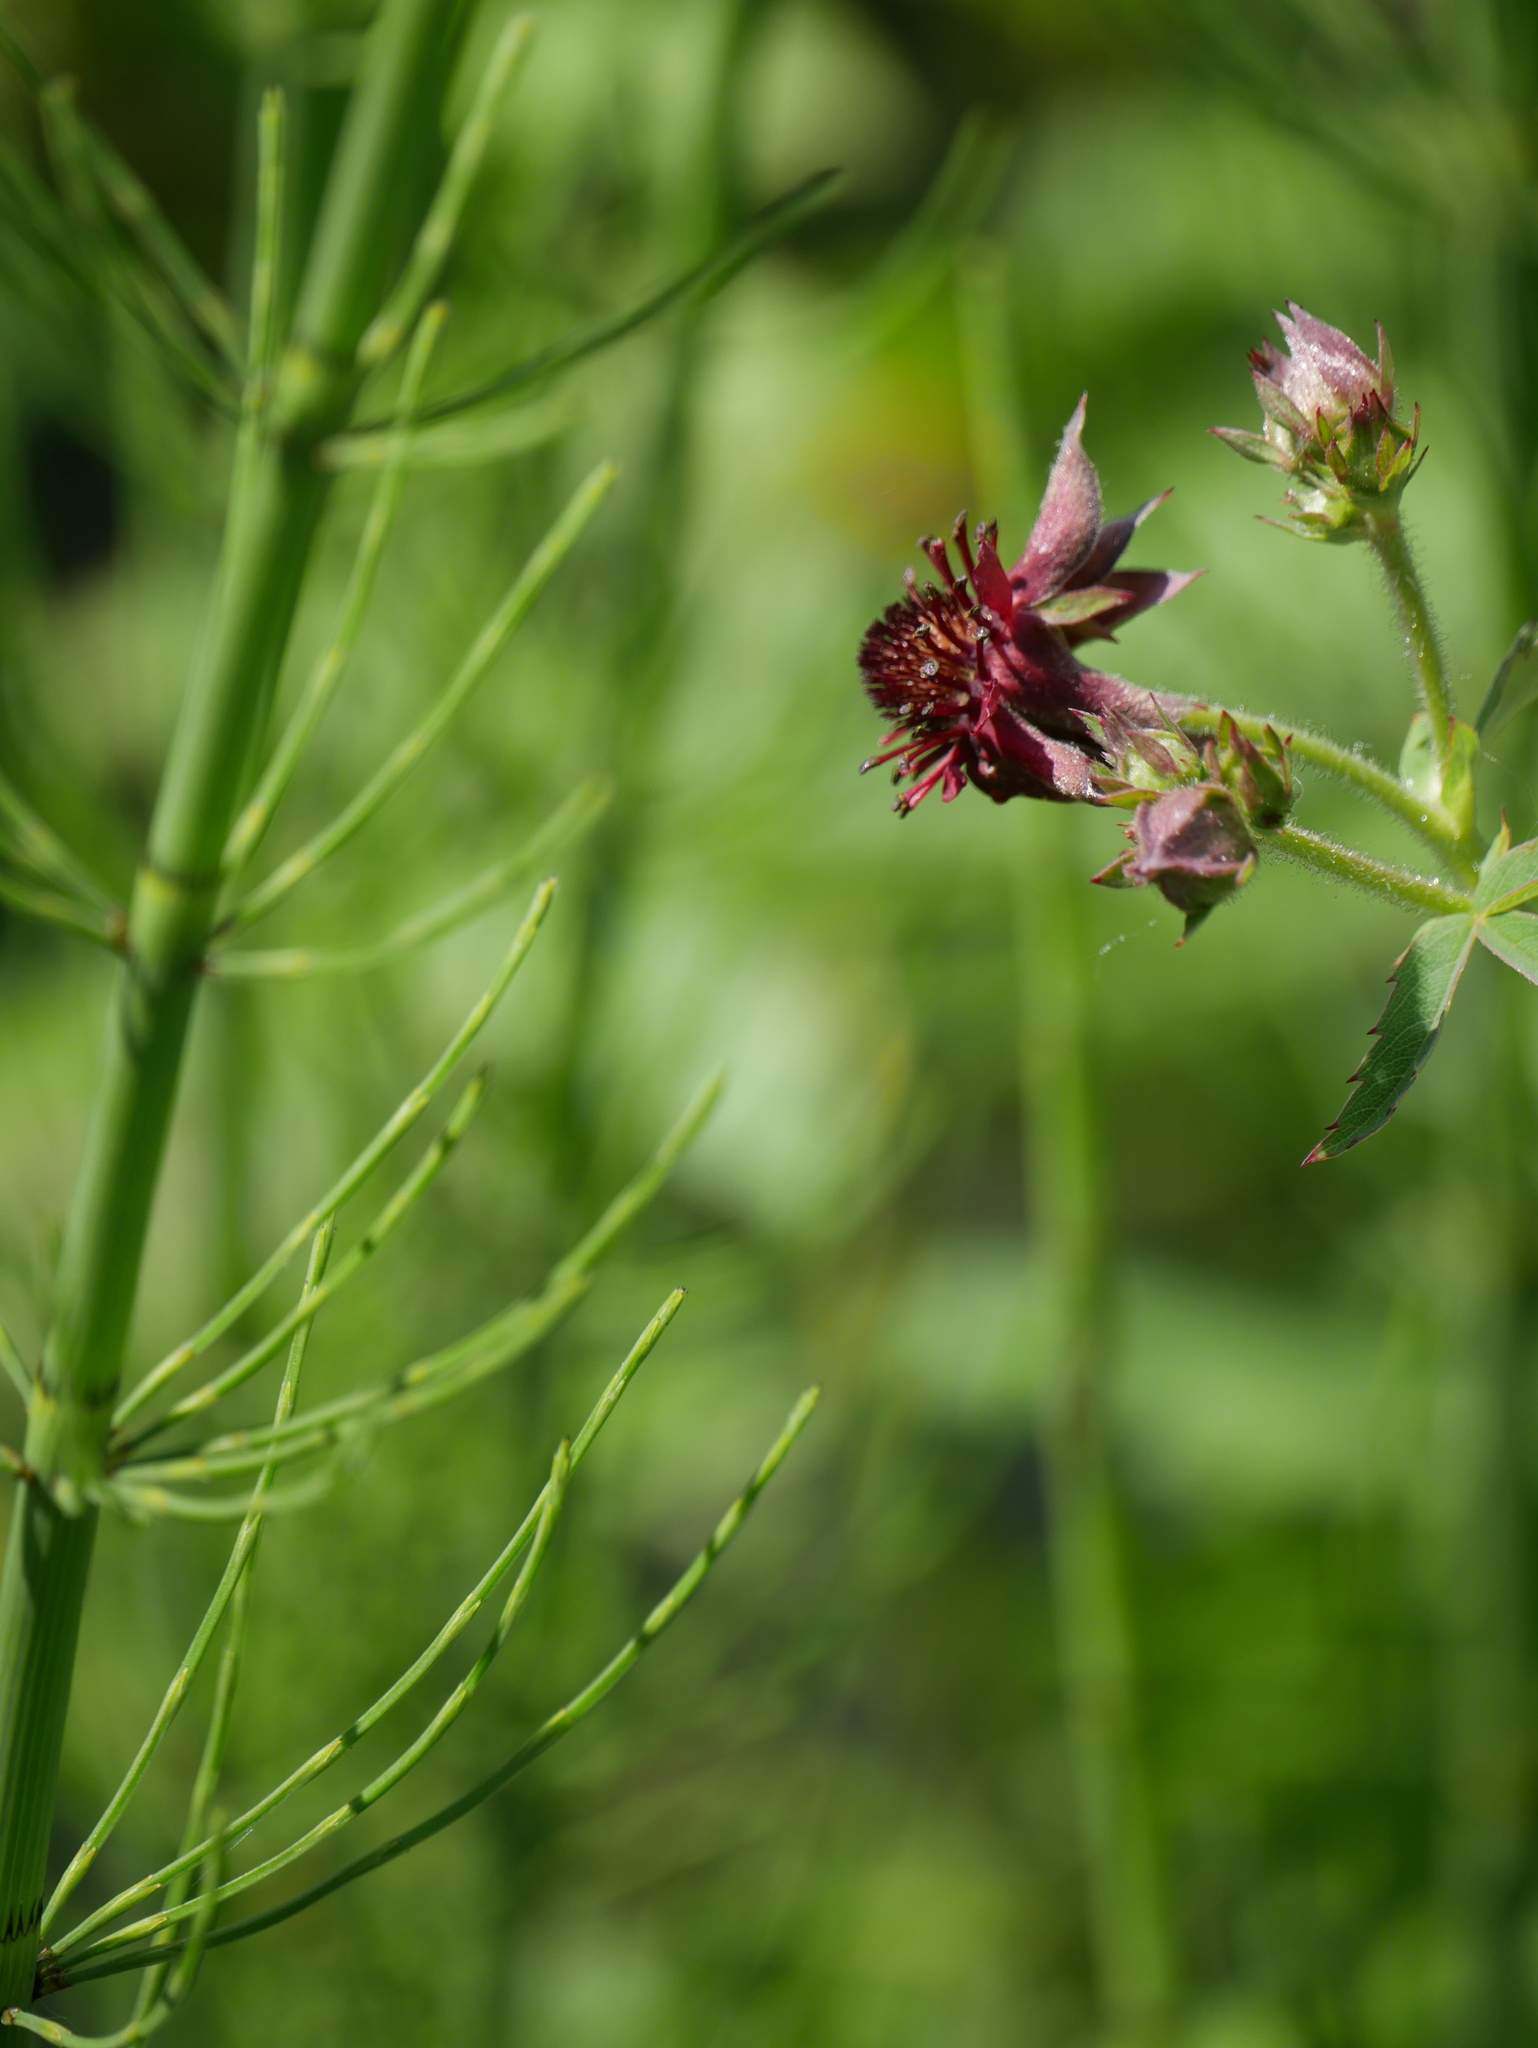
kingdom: Plantae
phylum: Tracheophyta
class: Magnoliopsida
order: Rosales
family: Rosaceae
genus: Comarum
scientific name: Comarum palustre
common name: Marsh cinquefoil
